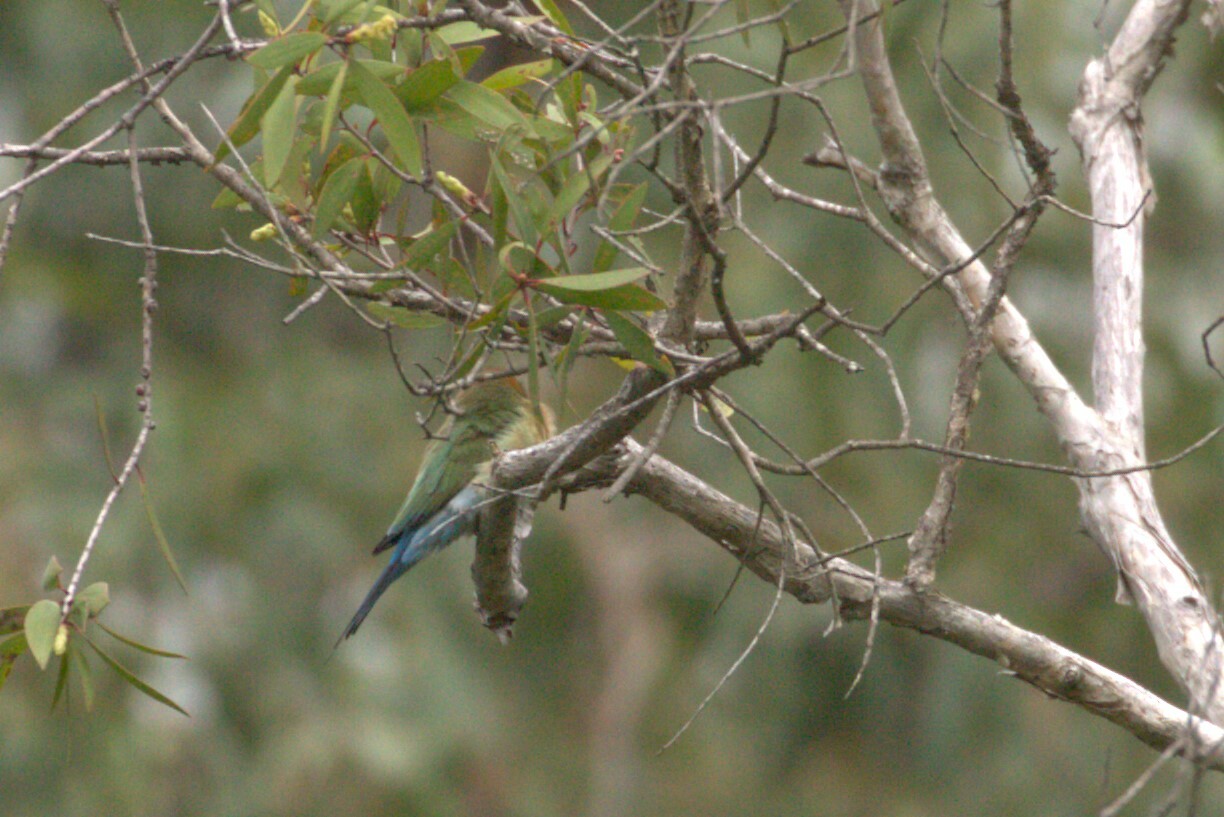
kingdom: Animalia
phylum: Chordata
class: Aves
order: Coraciiformes
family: Meropidae
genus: Merops
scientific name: Merops ornatus
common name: Rainbow bee-eater
